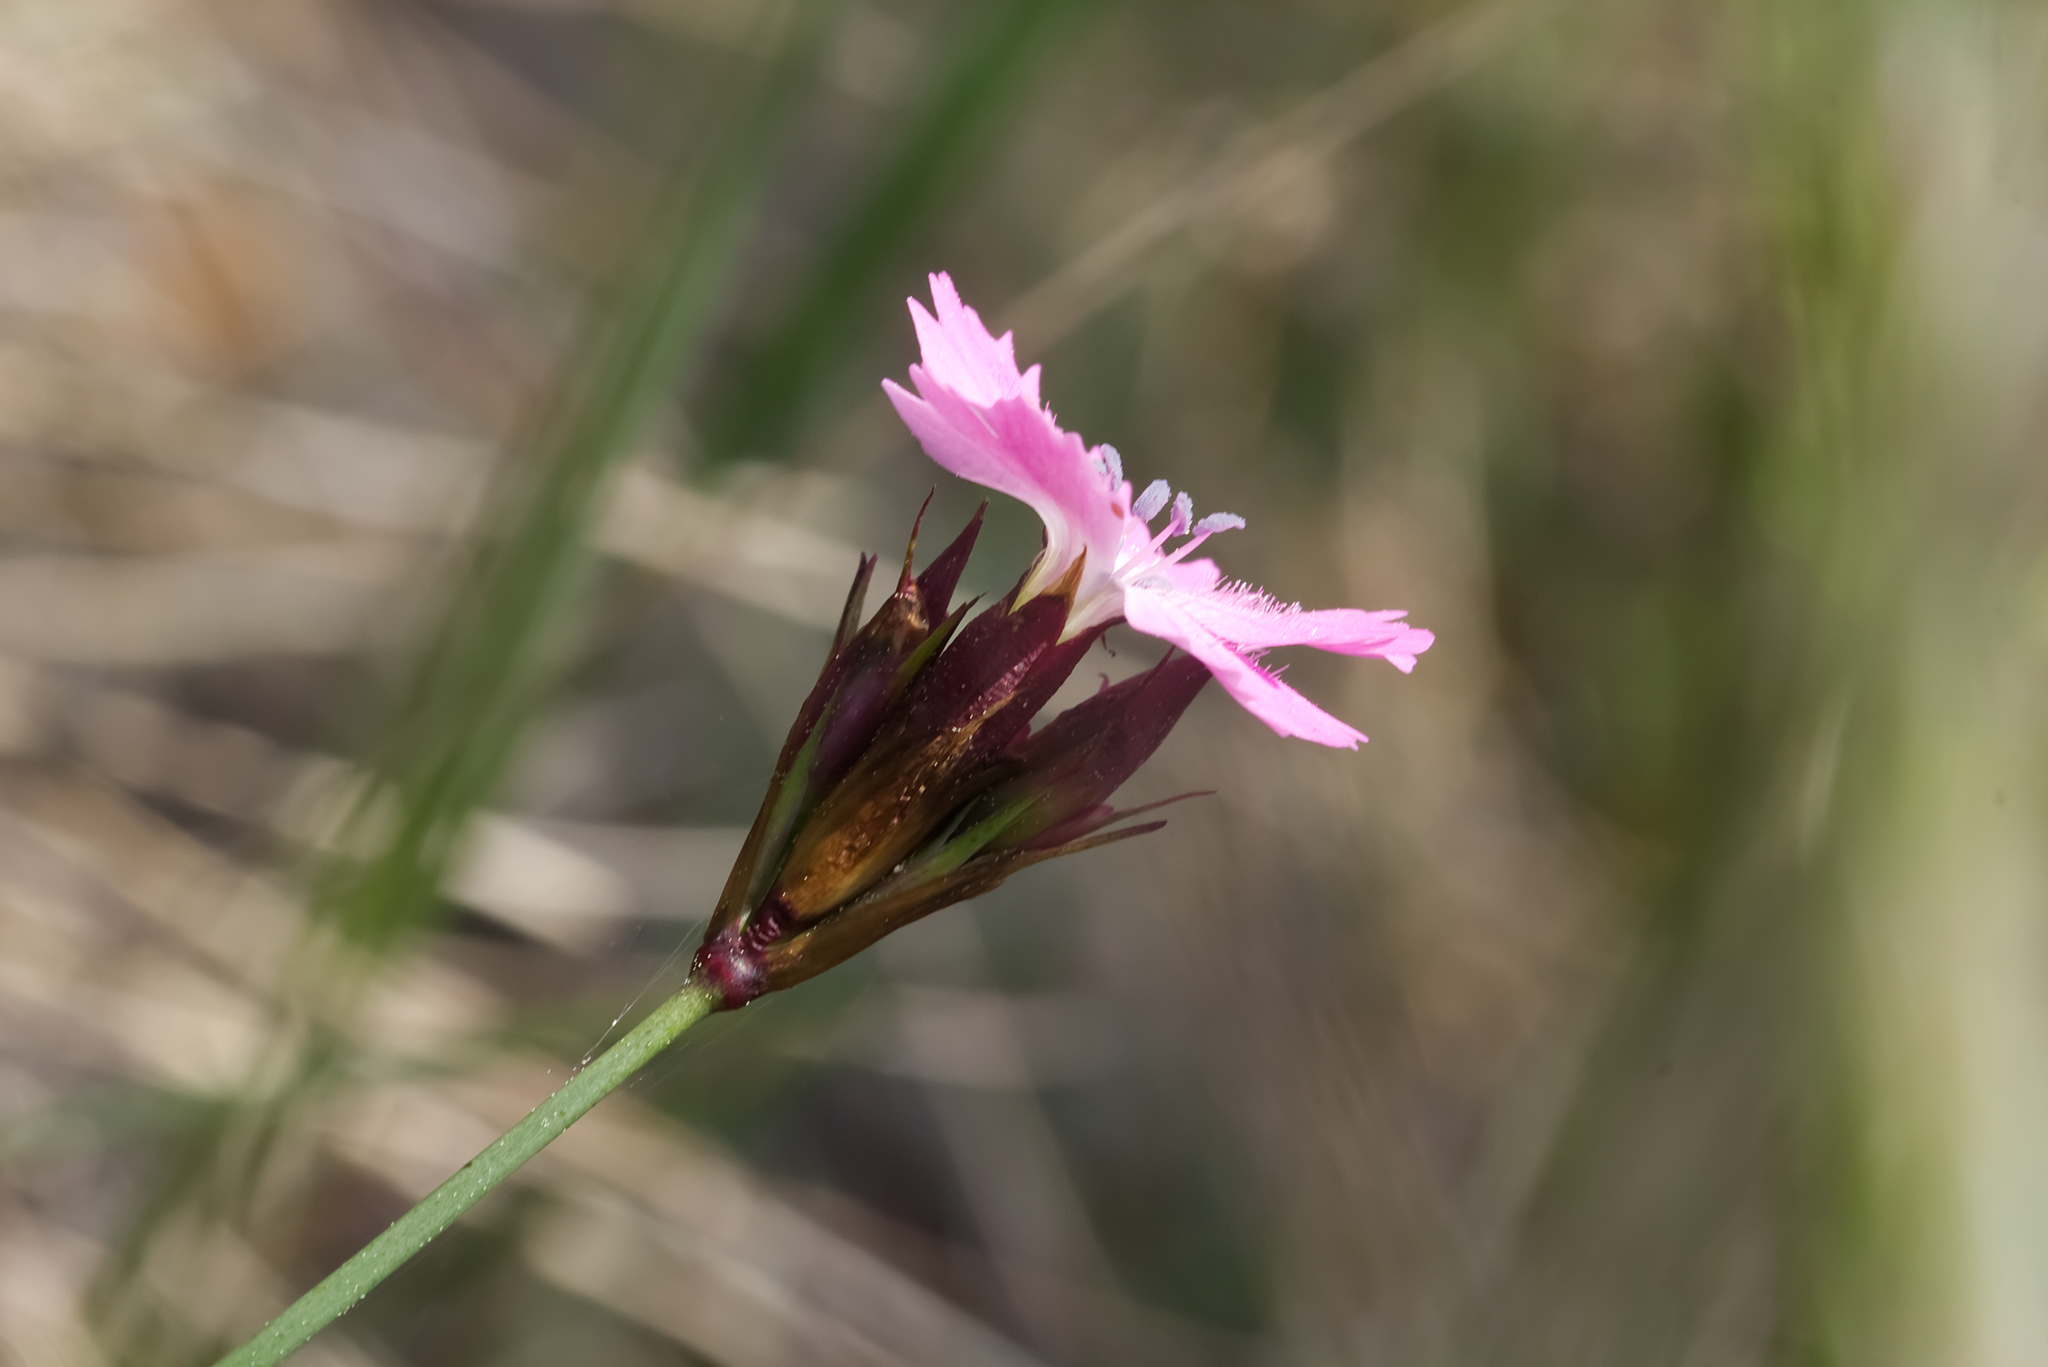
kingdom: Plantae
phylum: Tracheophyta
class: Magnoliopsida
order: Caryophyllales
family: Caryophyllaceae
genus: Dianthus
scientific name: Dianthus carthusianorum
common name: Carthusian pink
